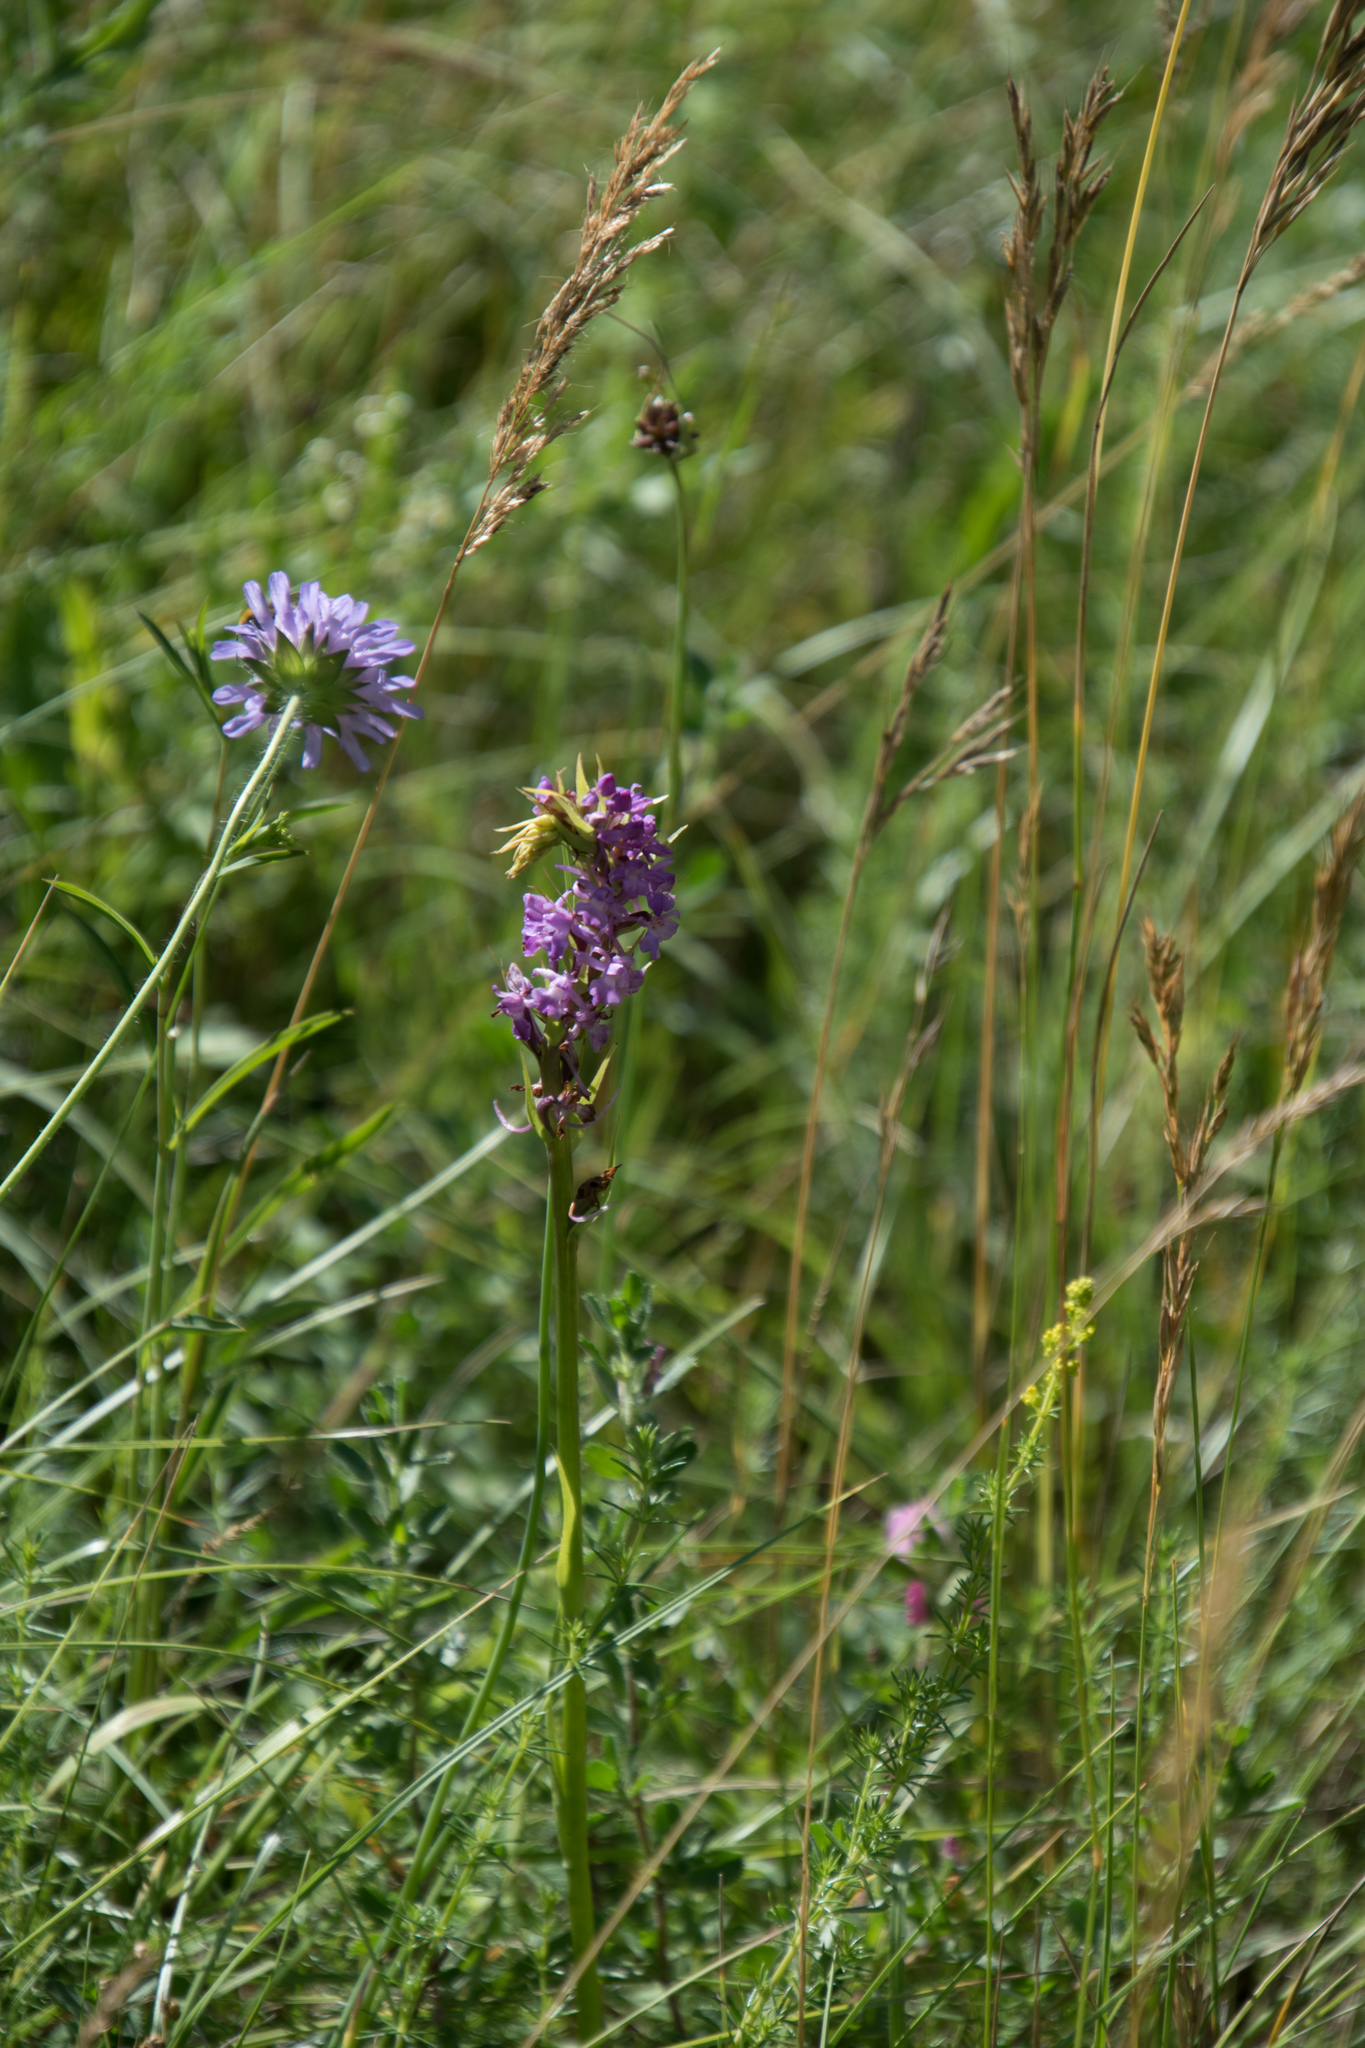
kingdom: Plantae
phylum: Tracheophyta
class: Liliopsida
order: Asparagales
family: Orchidaceae
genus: Gymnadenia
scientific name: Gymnadenia conopsea
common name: Fragrant orchid
